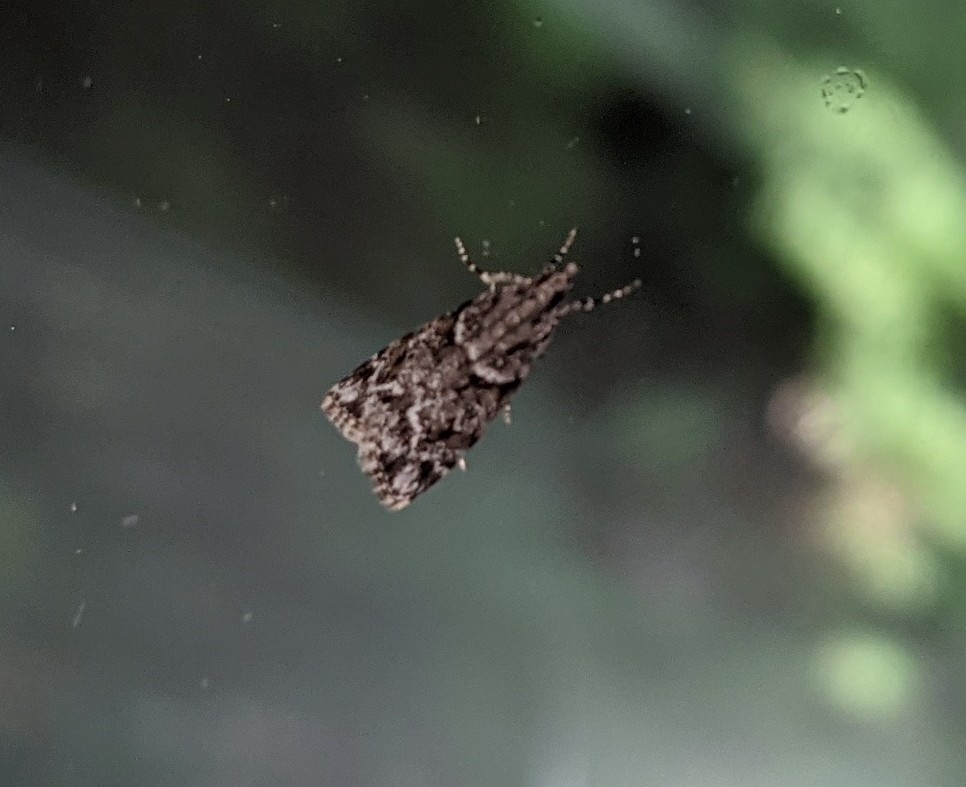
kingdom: Animalia
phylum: Arthropoda
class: Insecta
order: Lepidoptera
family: Crambidae
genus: Scoparia
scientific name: Scoparia biplagialis
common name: Double-striped scoparia moth
